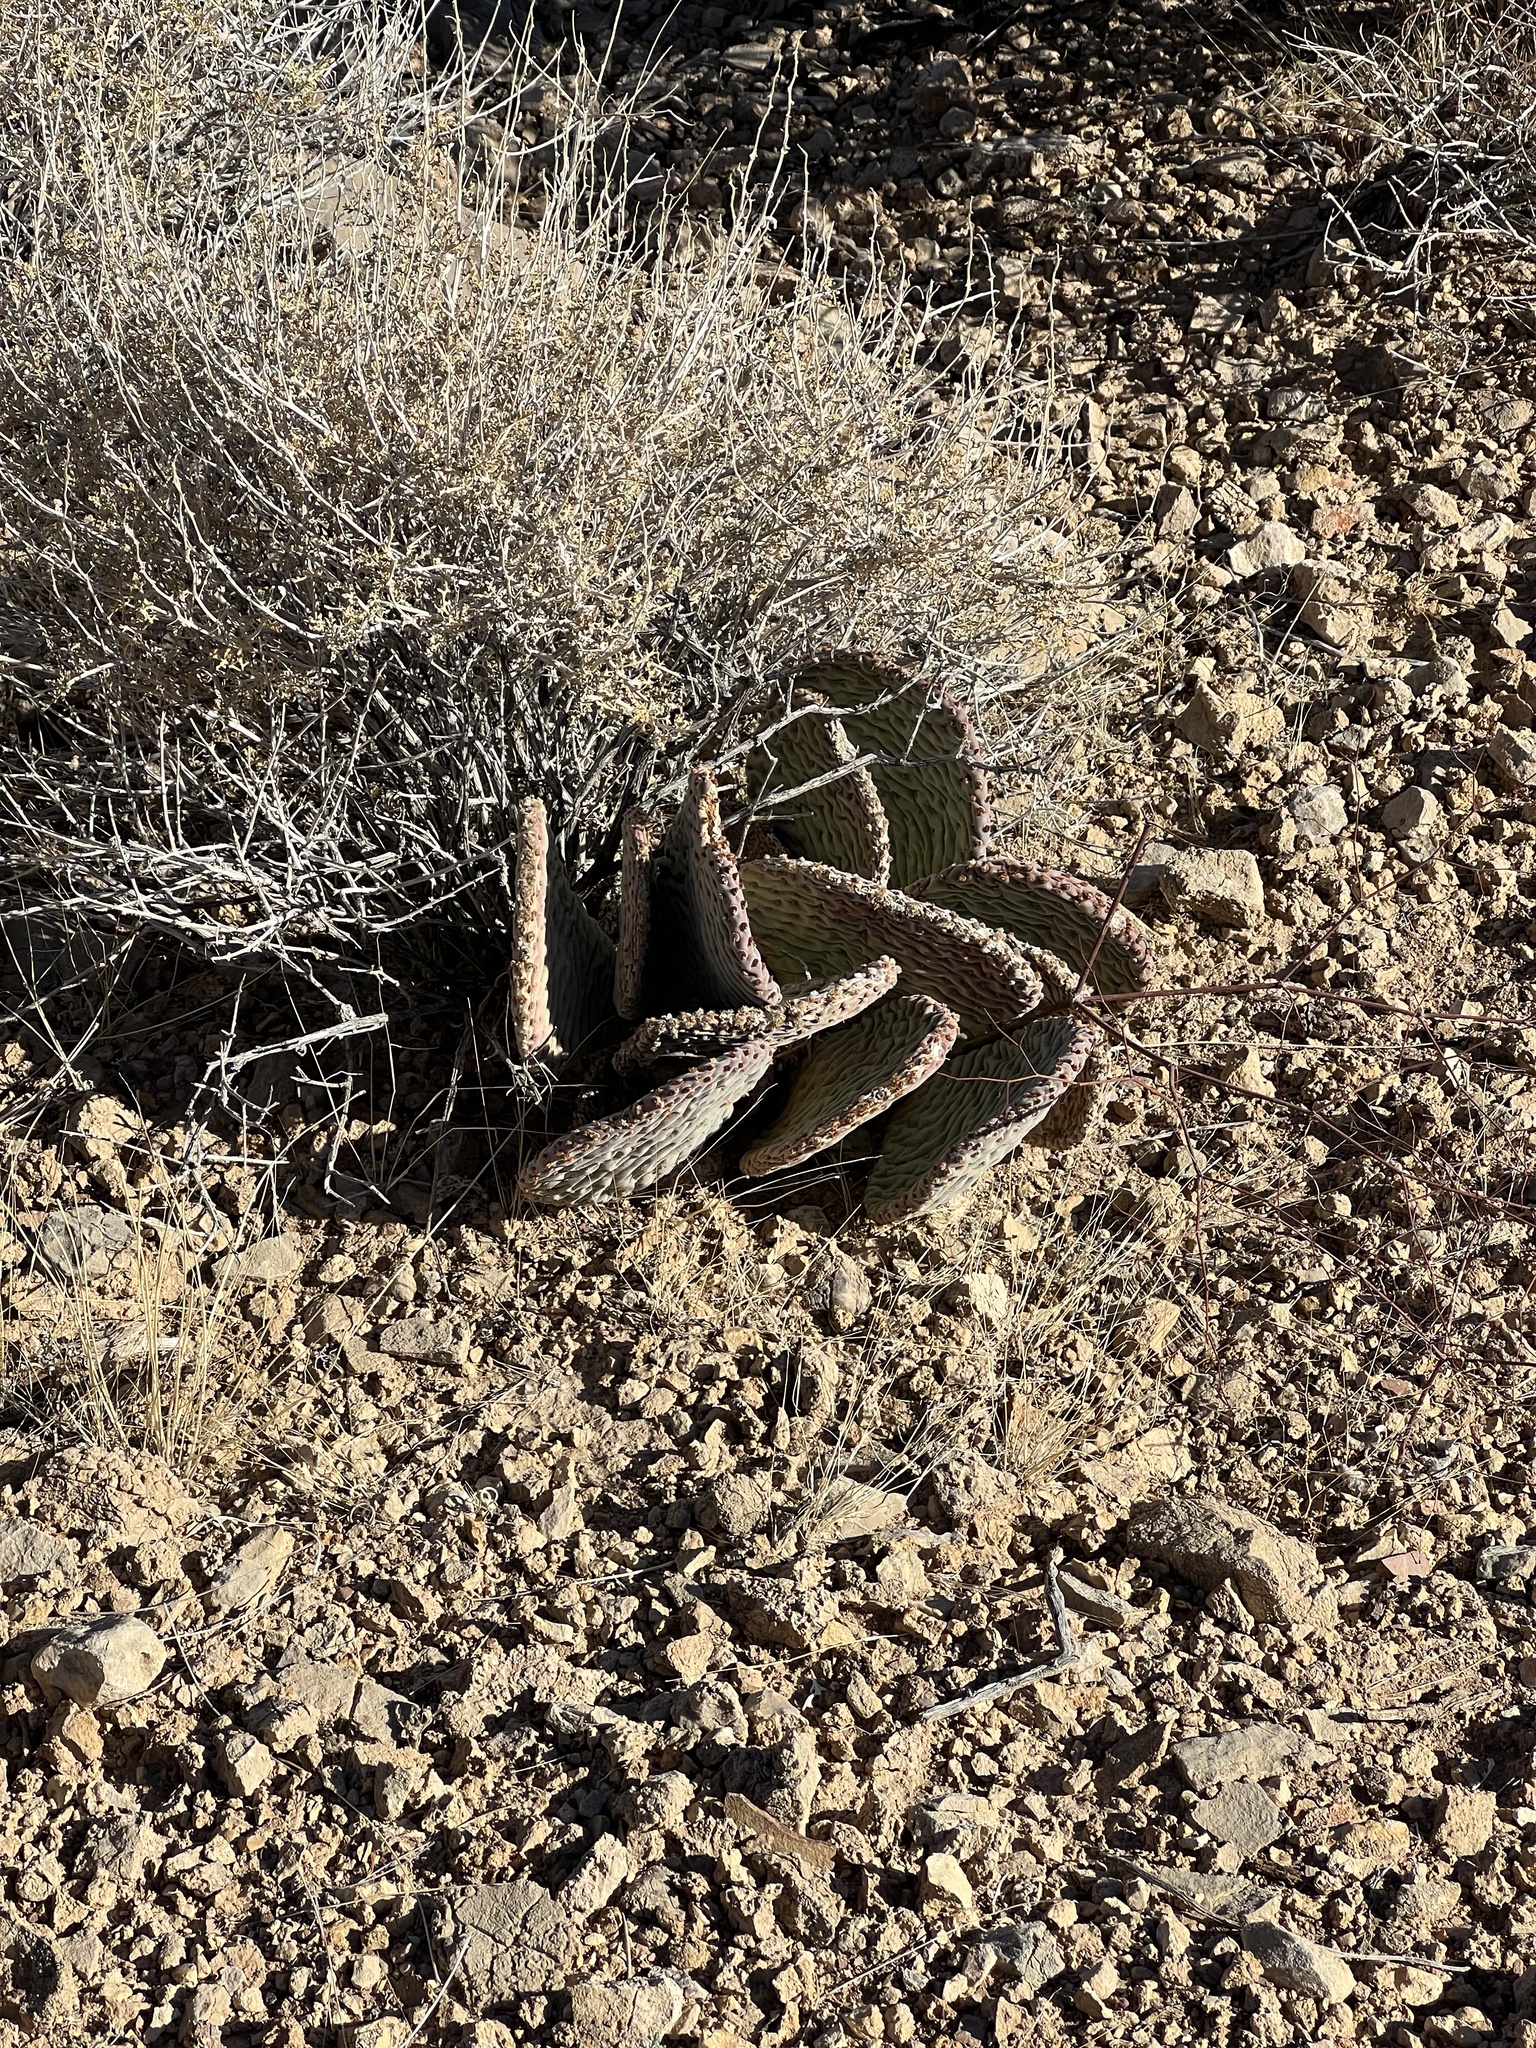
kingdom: Plantae
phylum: Tracheophyta
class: Magnoliopsida
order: Caryophyllales
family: Cactaceae
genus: Opuntia
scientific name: Opuntia basilaris
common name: Beavertail prickly-pear
